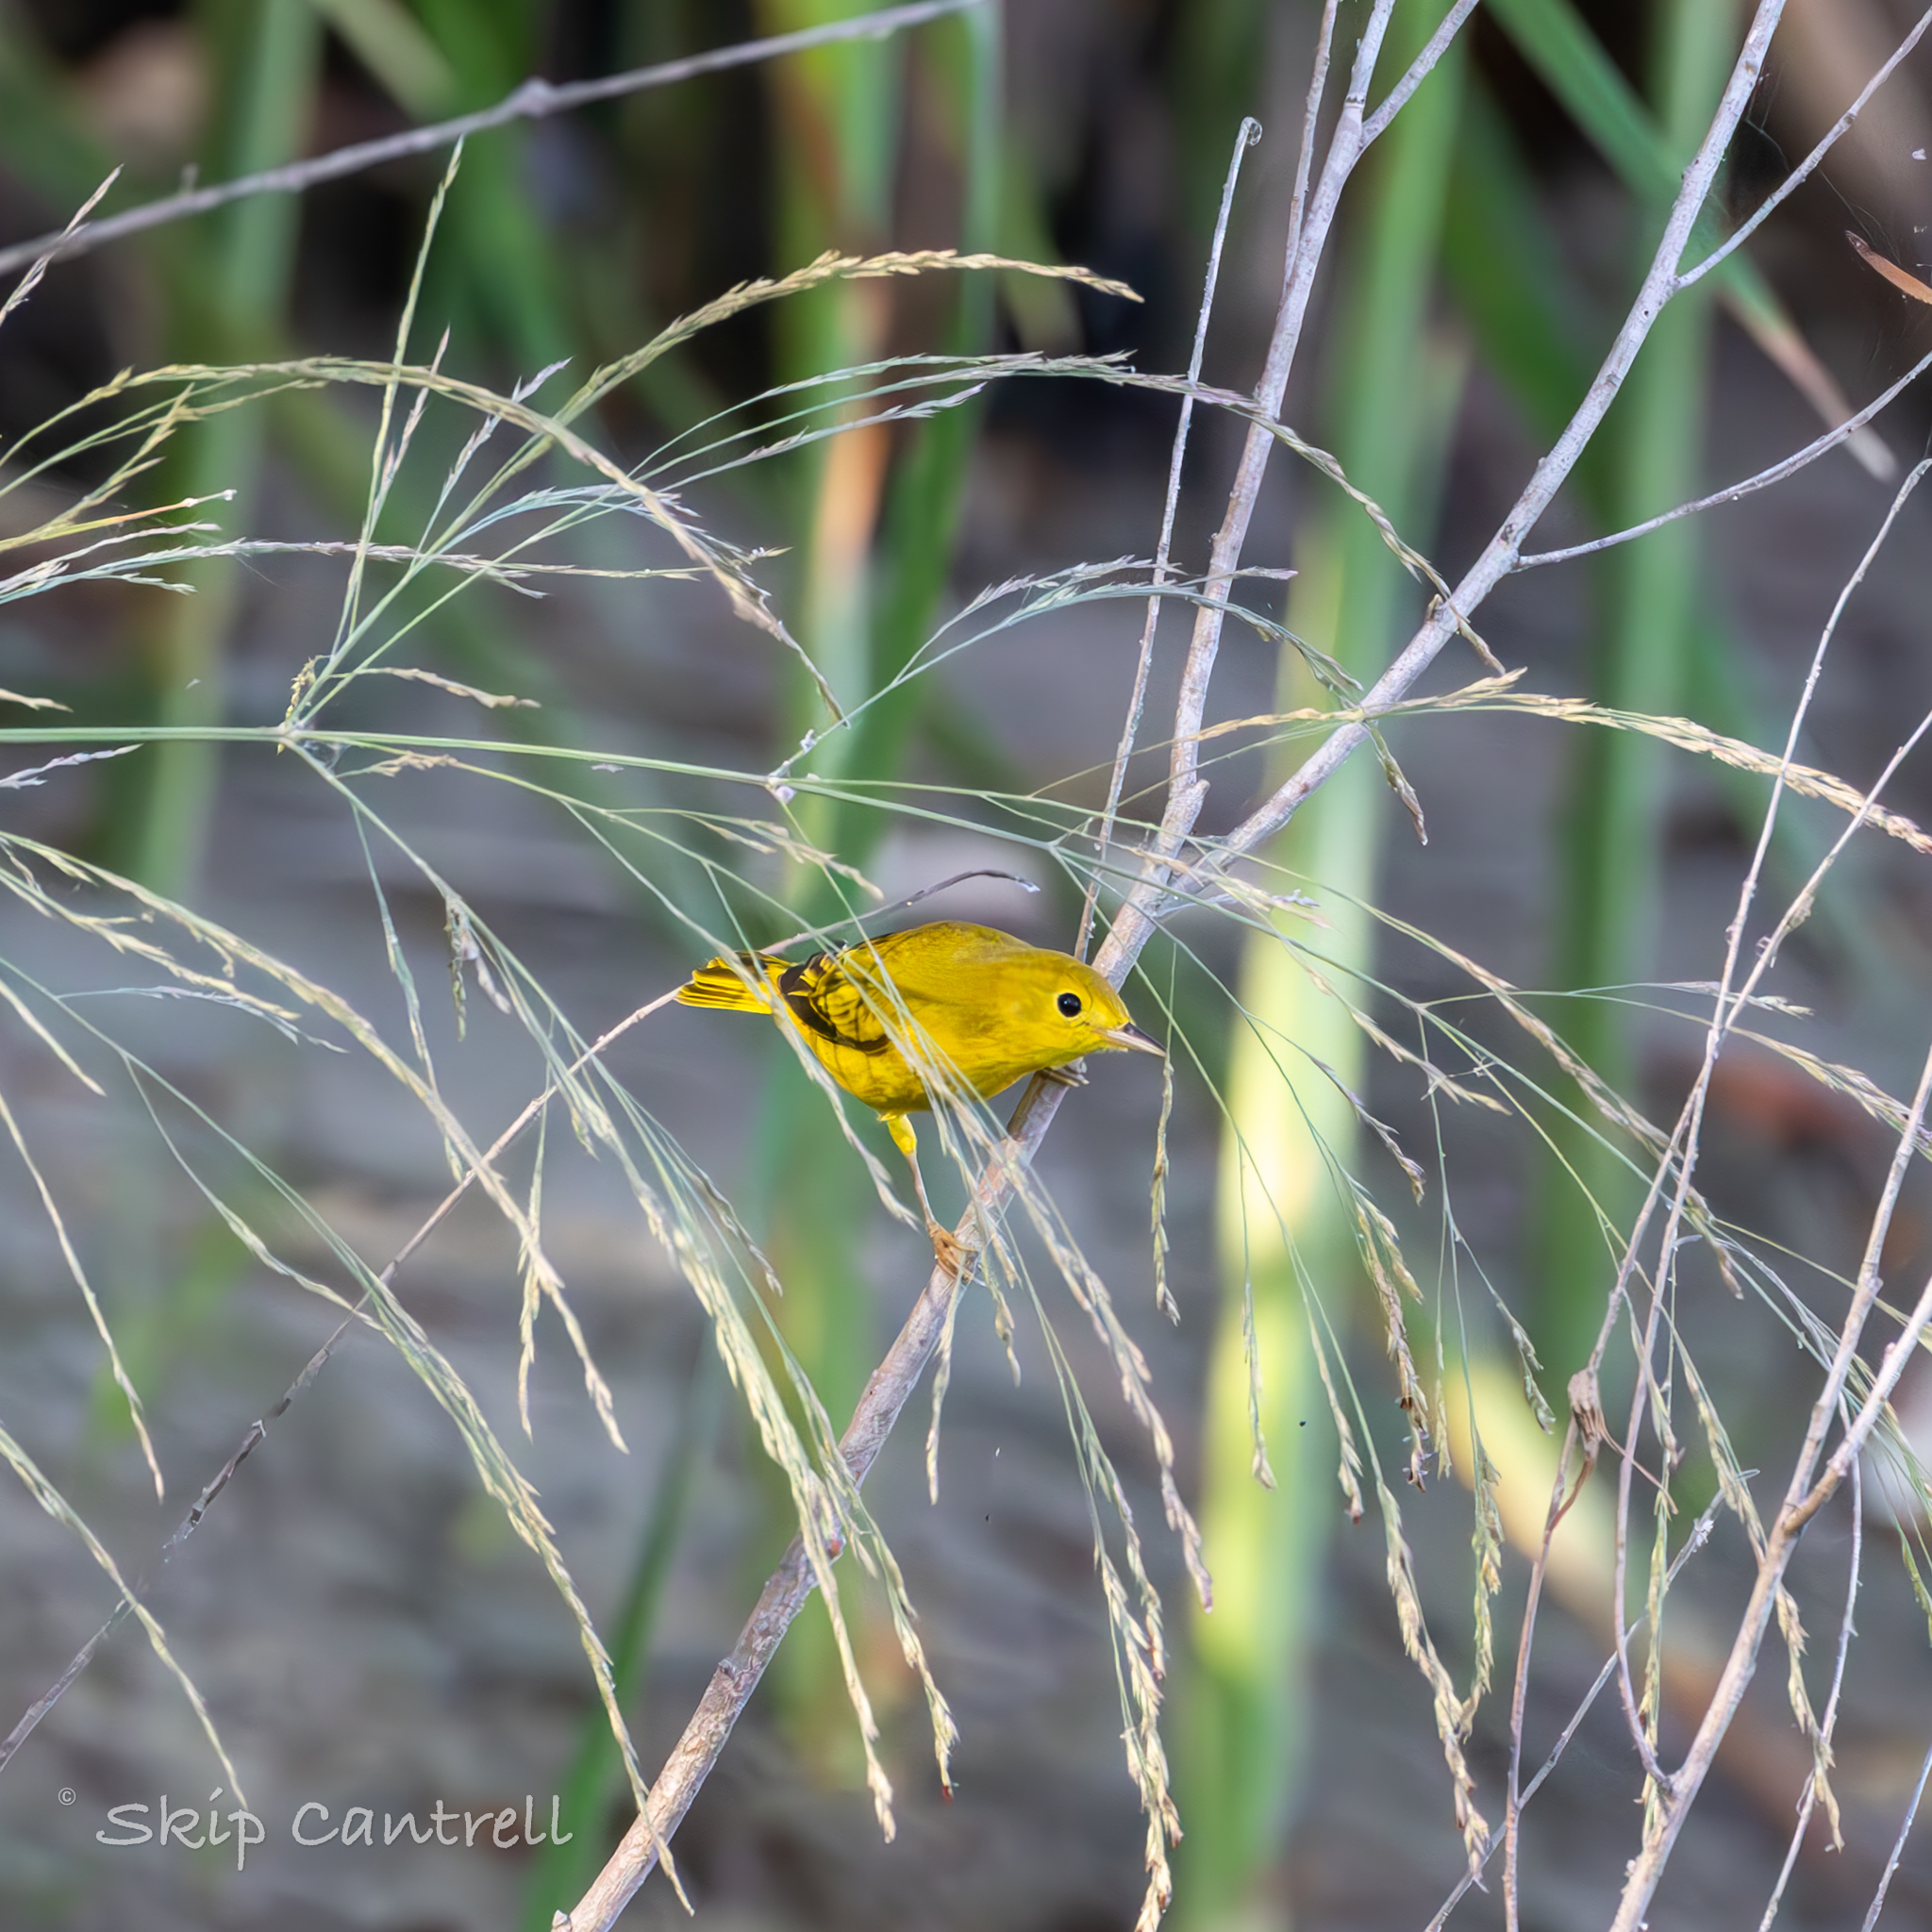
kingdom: Animalia
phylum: Chordata
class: Aves
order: Passeriformes
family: Parulidae
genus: Setophaga
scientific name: Setophaga petechia
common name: Yellow warbler
